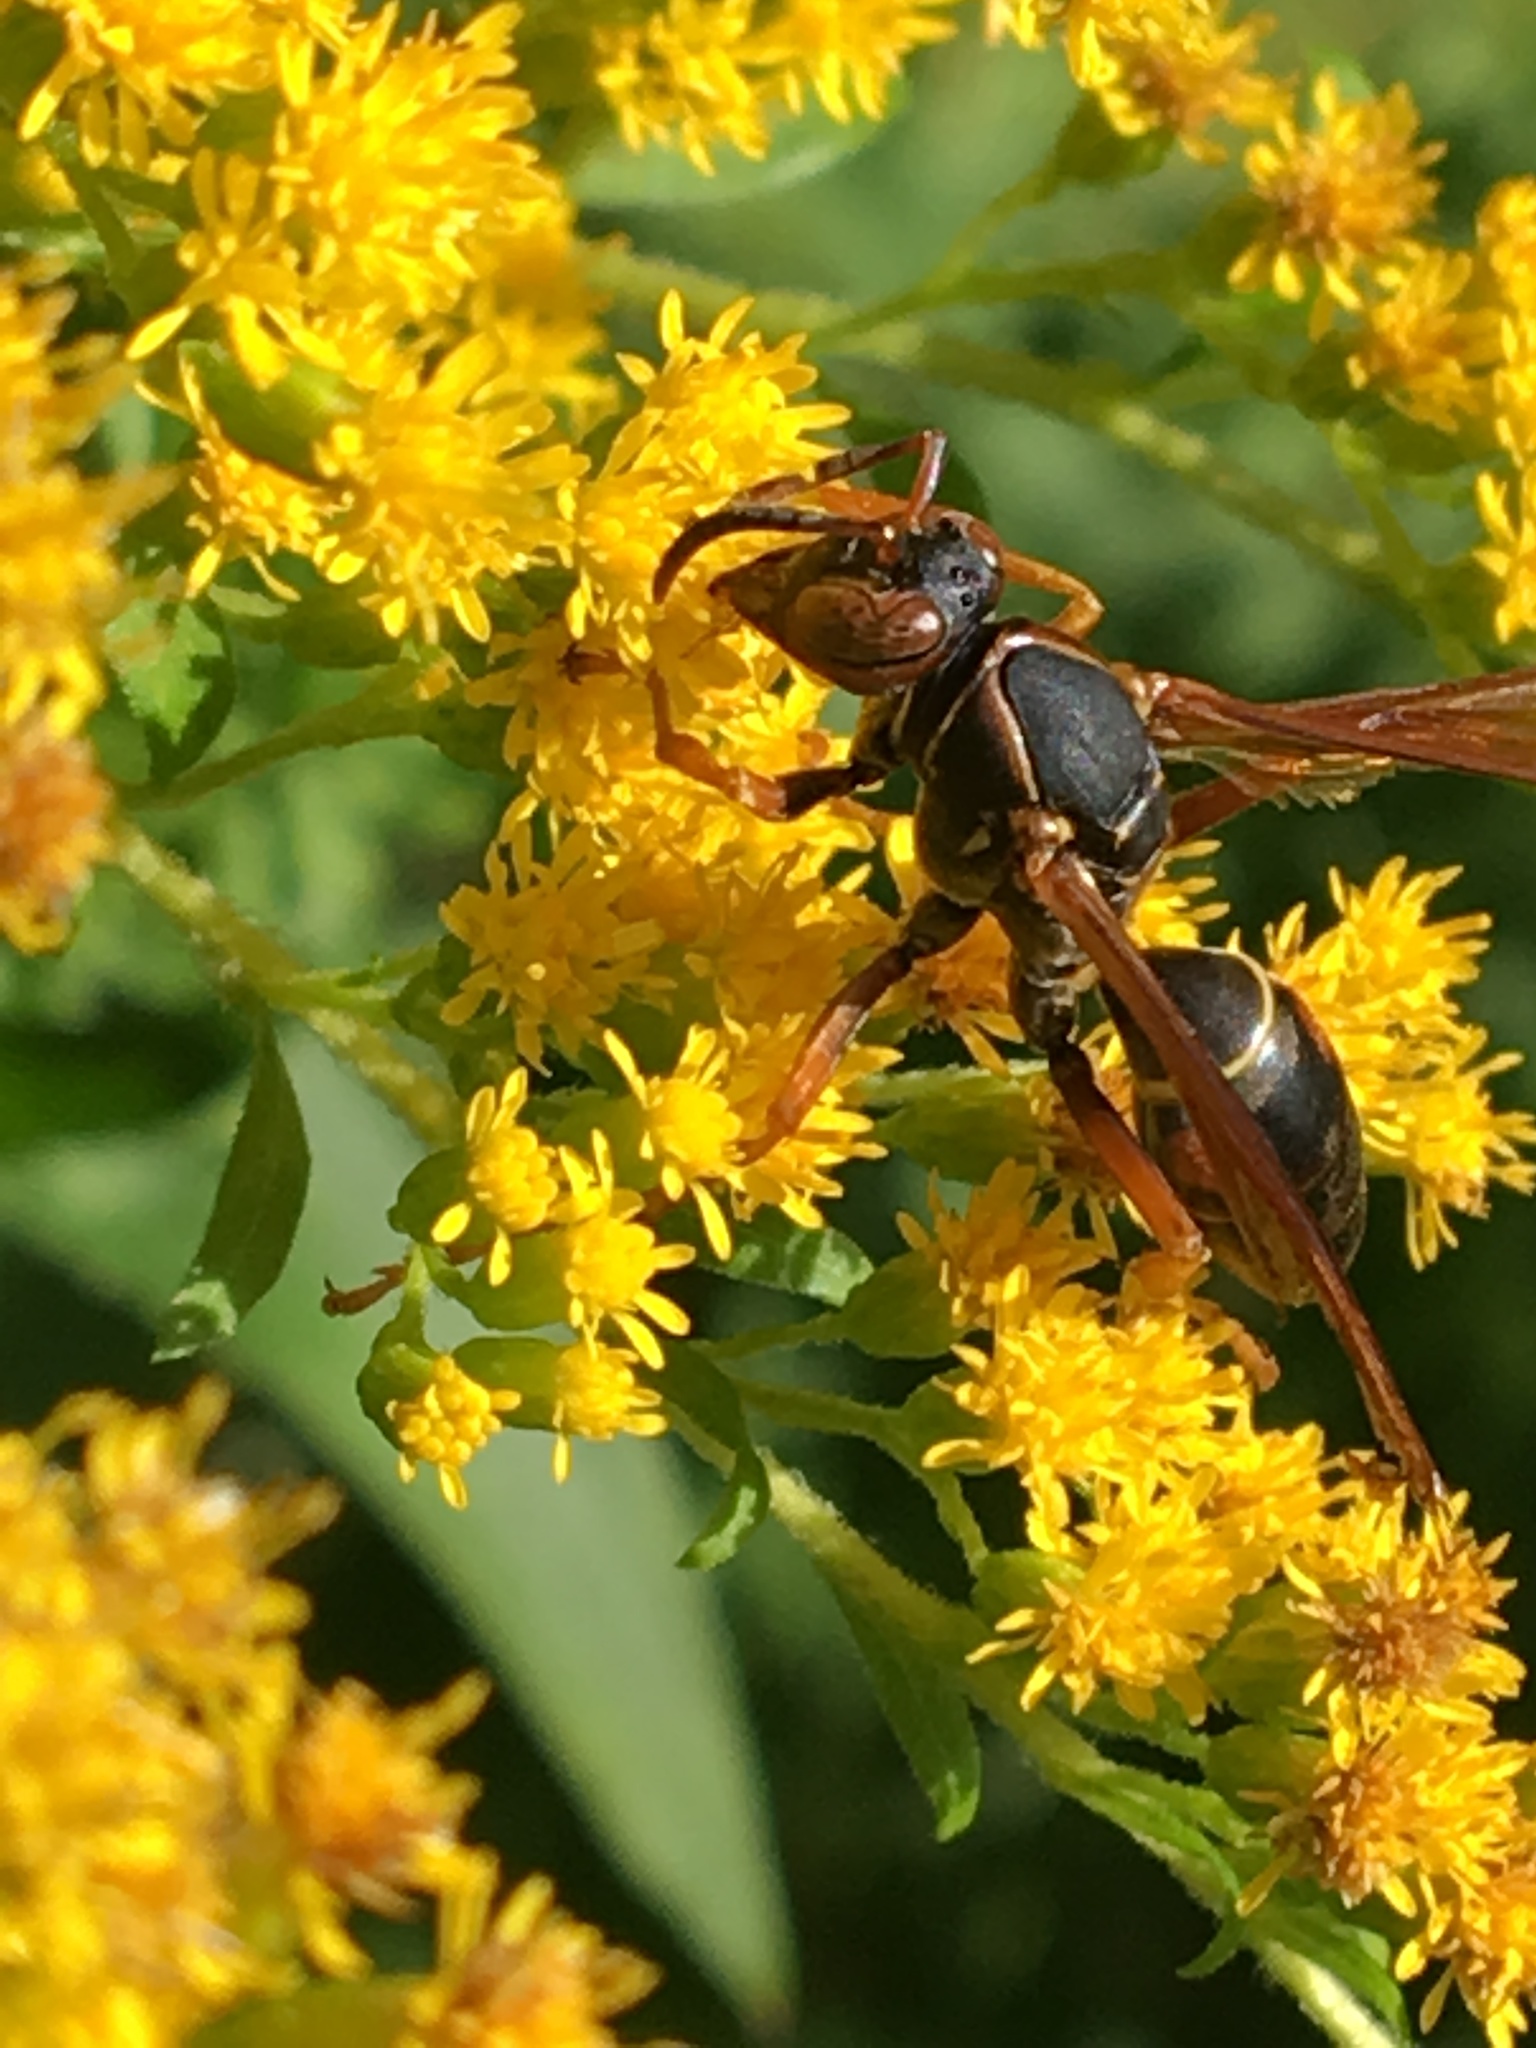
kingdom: Animalia
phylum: Arthropoda
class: Insecta
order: Hymenoptera
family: Eumenidae
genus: Polistes
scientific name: Polistes fuscatus
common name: Dark paper wasp
